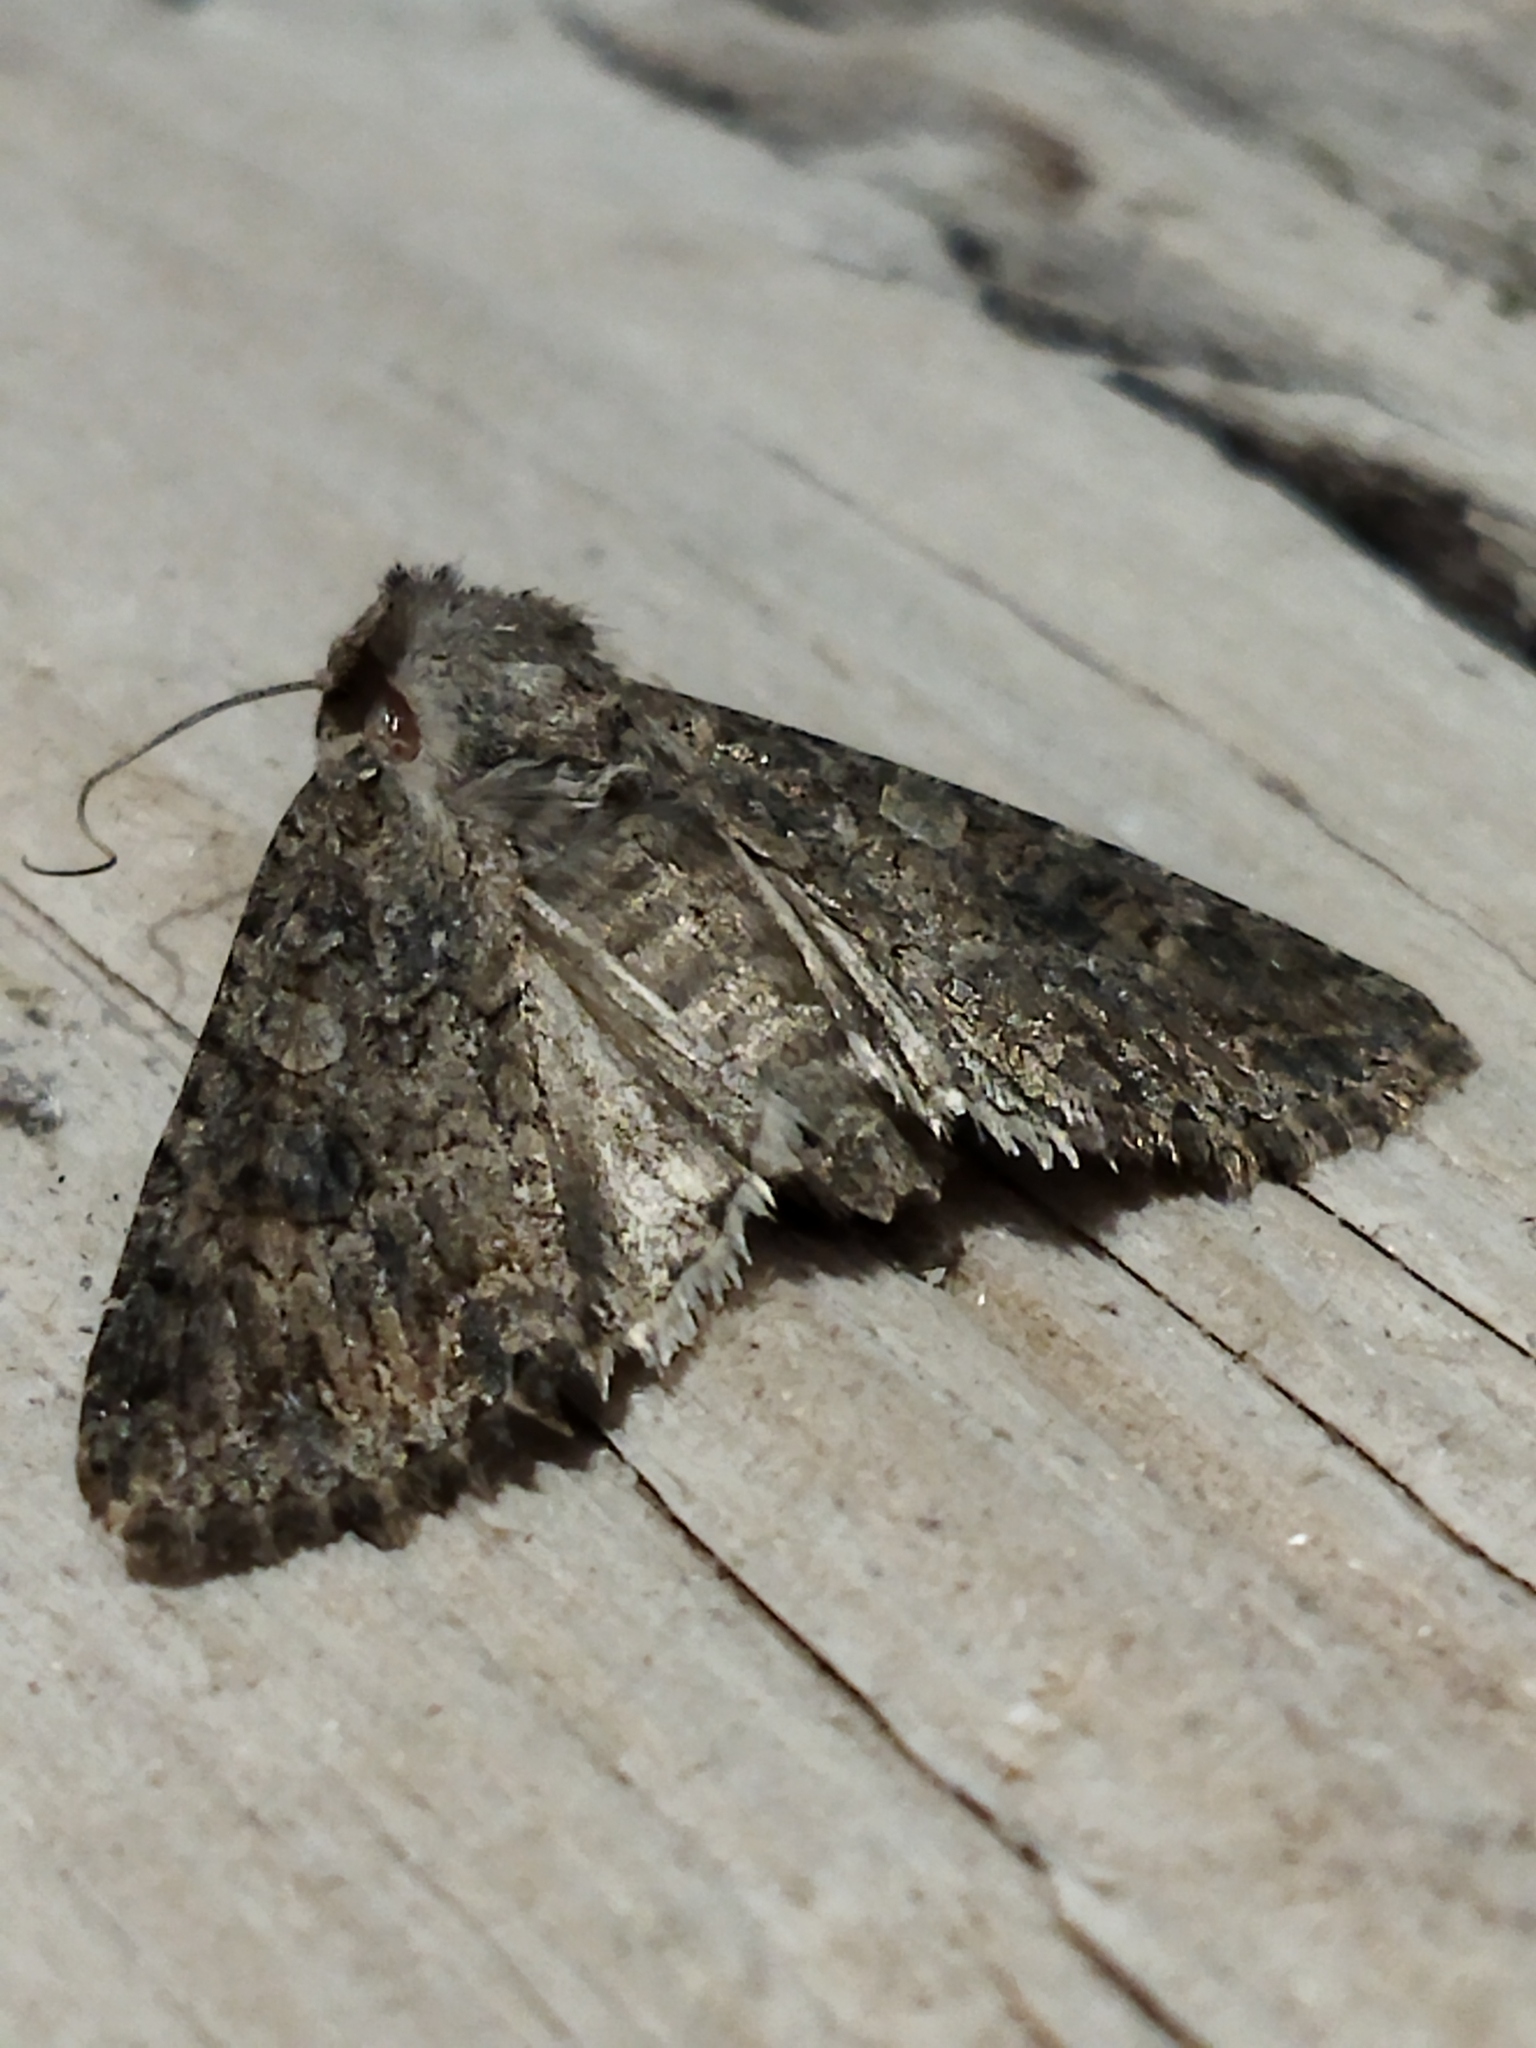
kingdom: Animalia
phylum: Arthropoda
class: Insecta
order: Lepidoptera
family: Noctuidae
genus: Anarta
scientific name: Anarta trifolii
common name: Clover cutworm moth
